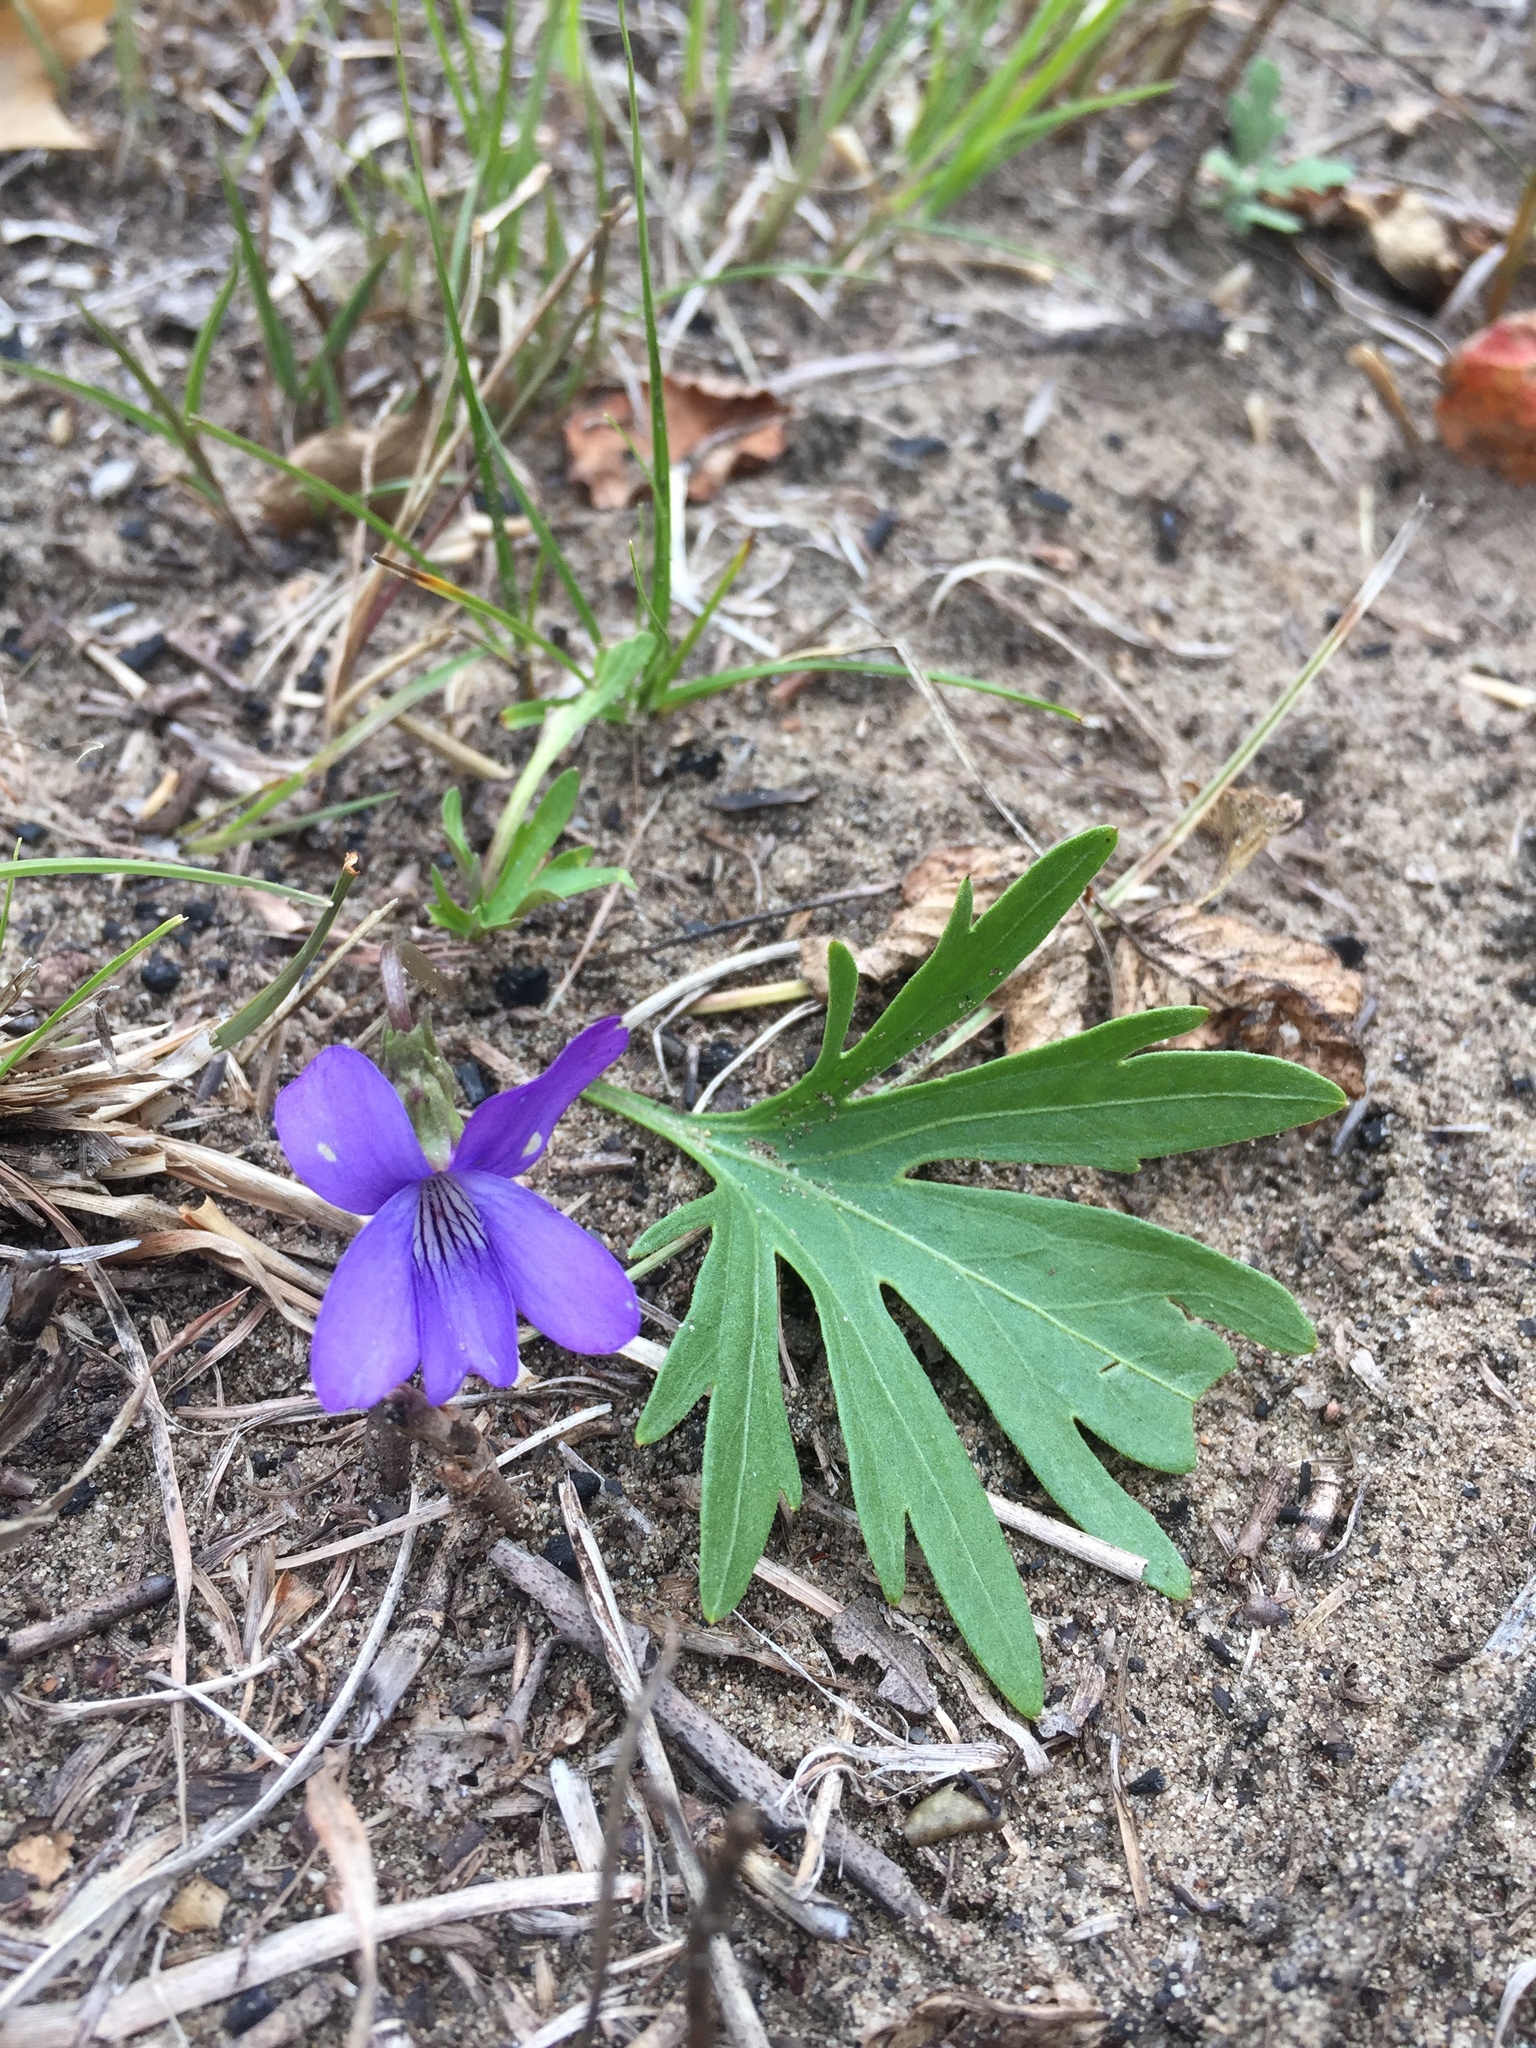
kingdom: Plantae
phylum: Tracheophyta
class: Magnoliopsida
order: Malpighiales
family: Violaceae
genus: Viola
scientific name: Viola pedatifida
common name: Prairie violet
